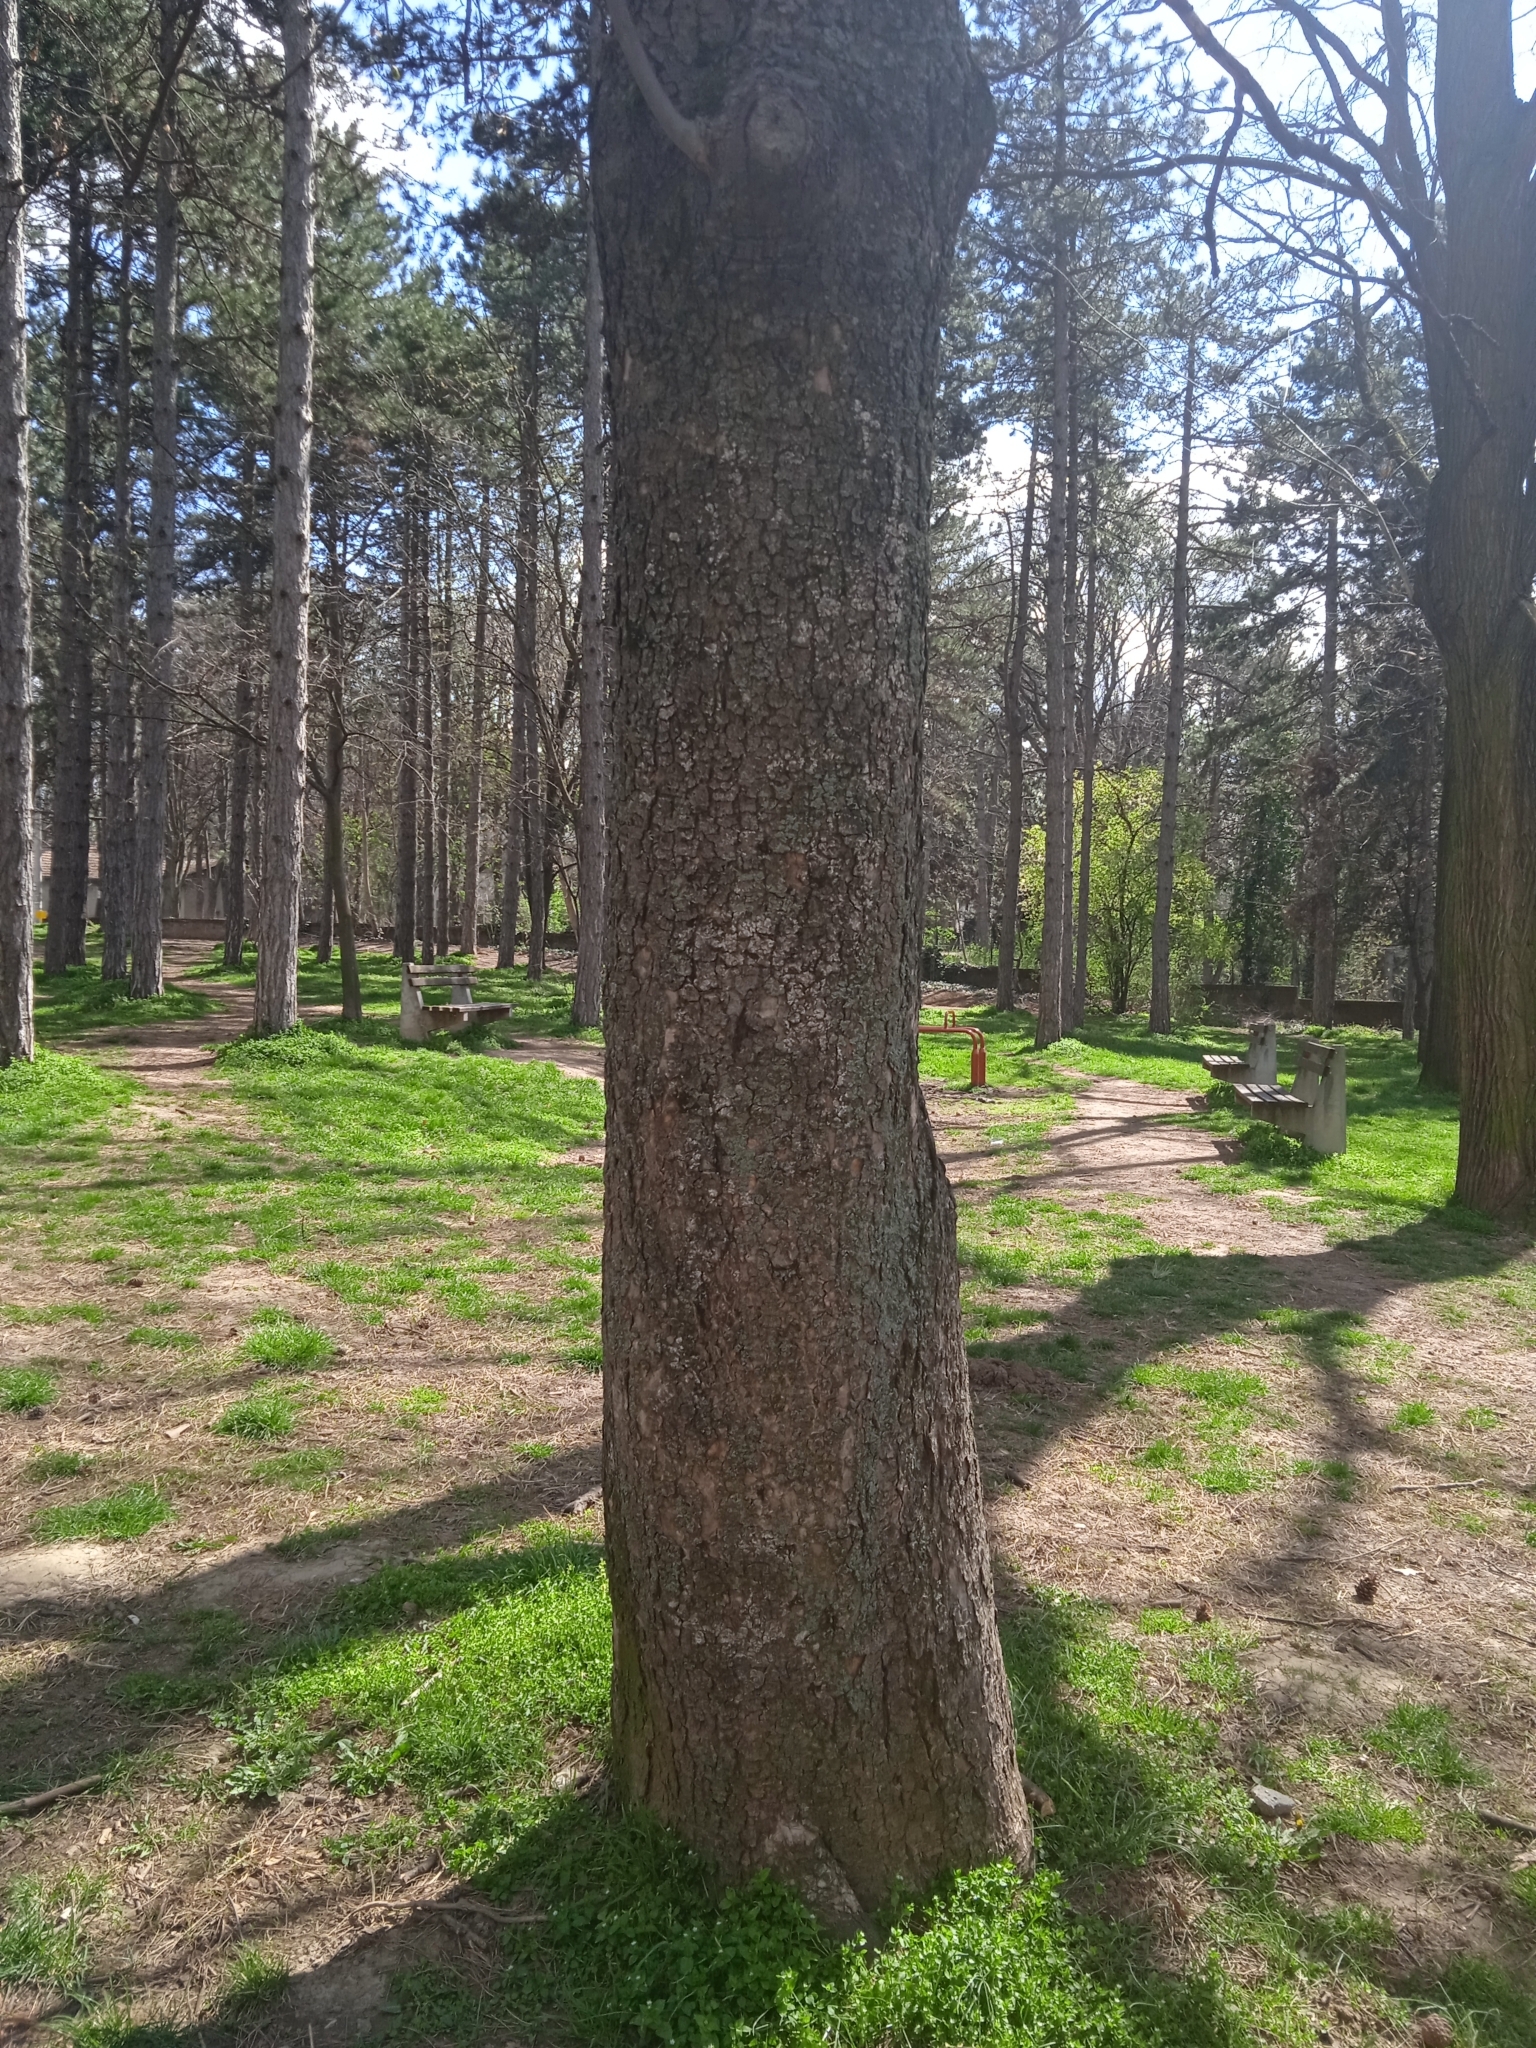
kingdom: Plantae
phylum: Tracheophyta
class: Magnoliopsida
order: Sapindales
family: Sapindaceae
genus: Aesculus
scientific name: Aesculus hippocastanum
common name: Horse-chestnut
